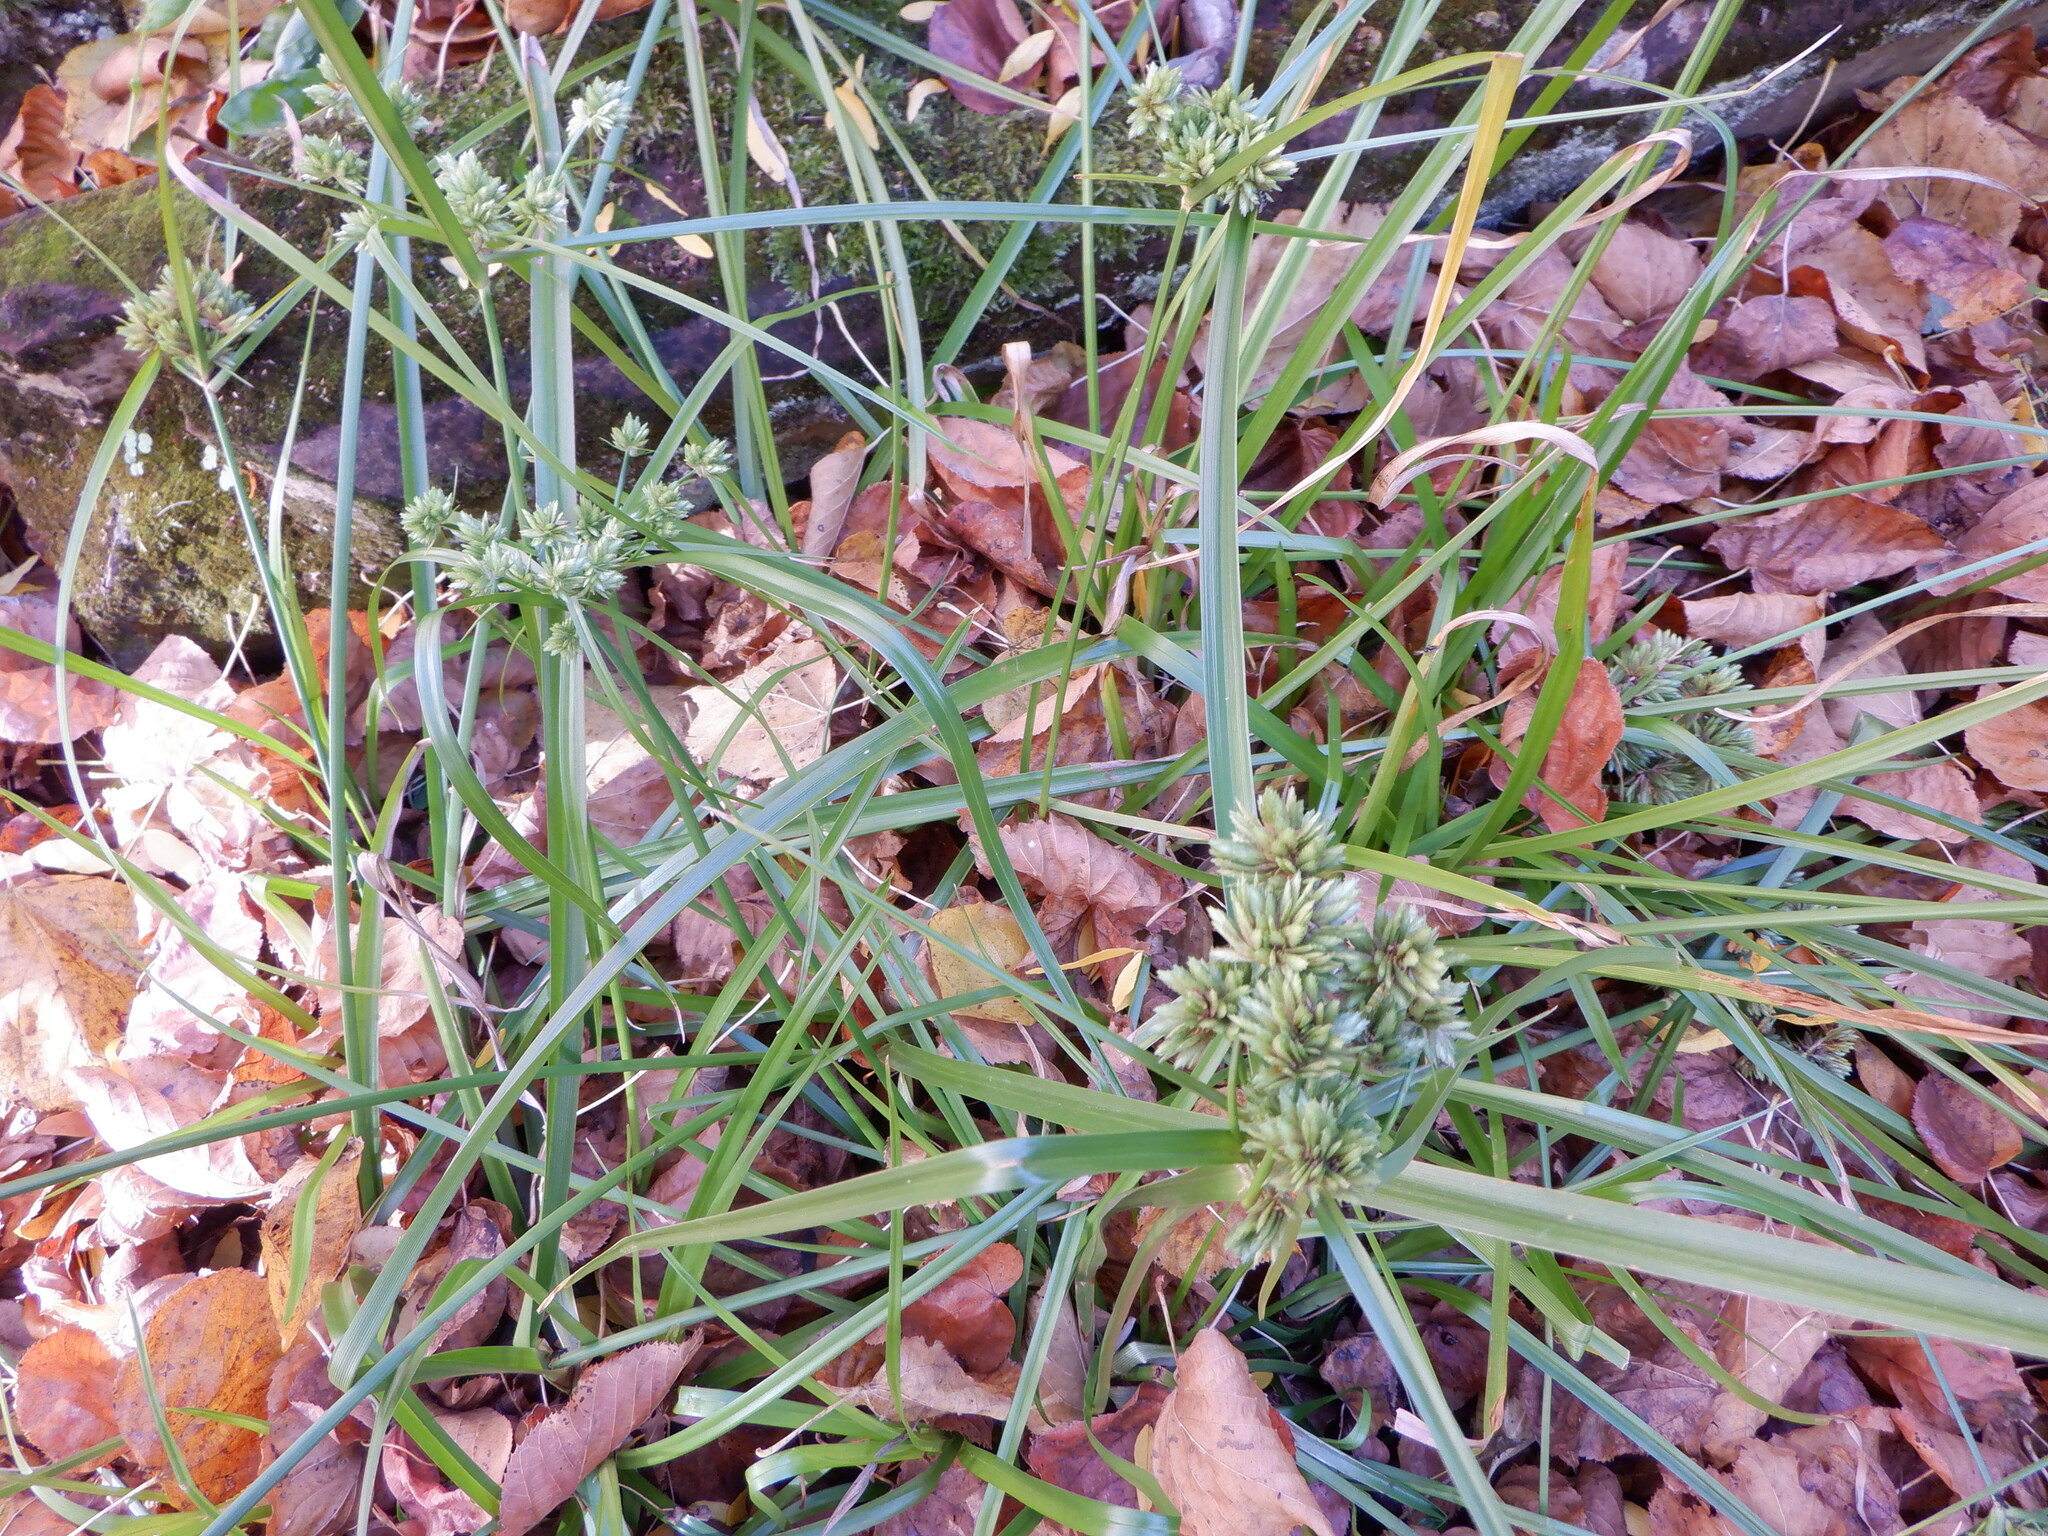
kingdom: Plantae
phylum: Tracheophyta
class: Liliopsida
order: Poales
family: Cyperaceae
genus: Cyperus
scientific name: Cyperus eragrostis
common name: Tall flatsedge
